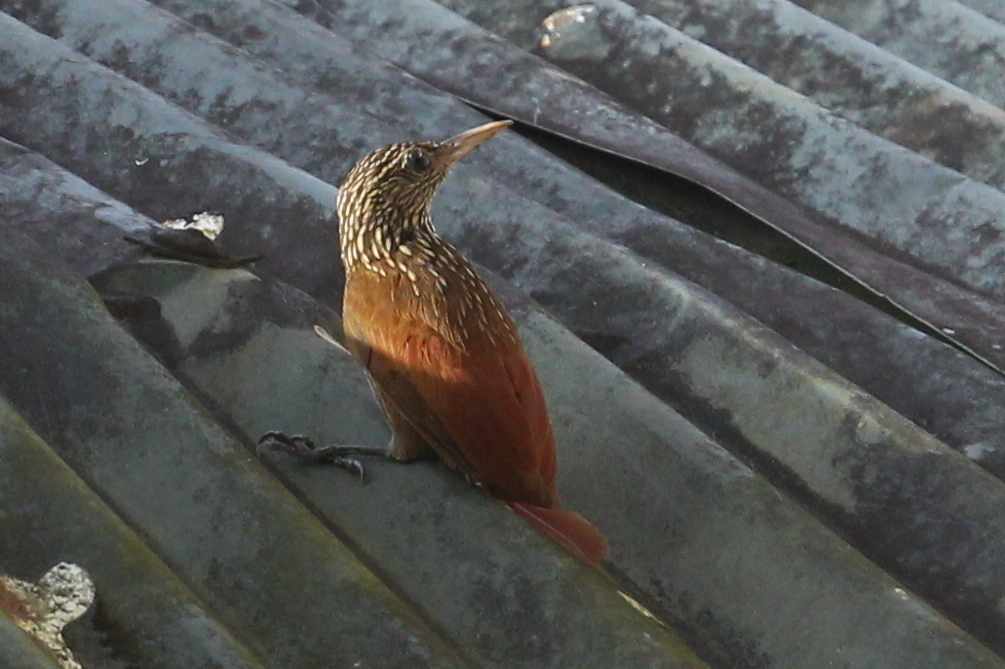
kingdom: Animalia
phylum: Chordata
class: Aves
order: Passeriformes
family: Furnariidae
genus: Xiphorhynchus
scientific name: Xiphorhynchus obsoletus
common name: Striped woodcreeper
